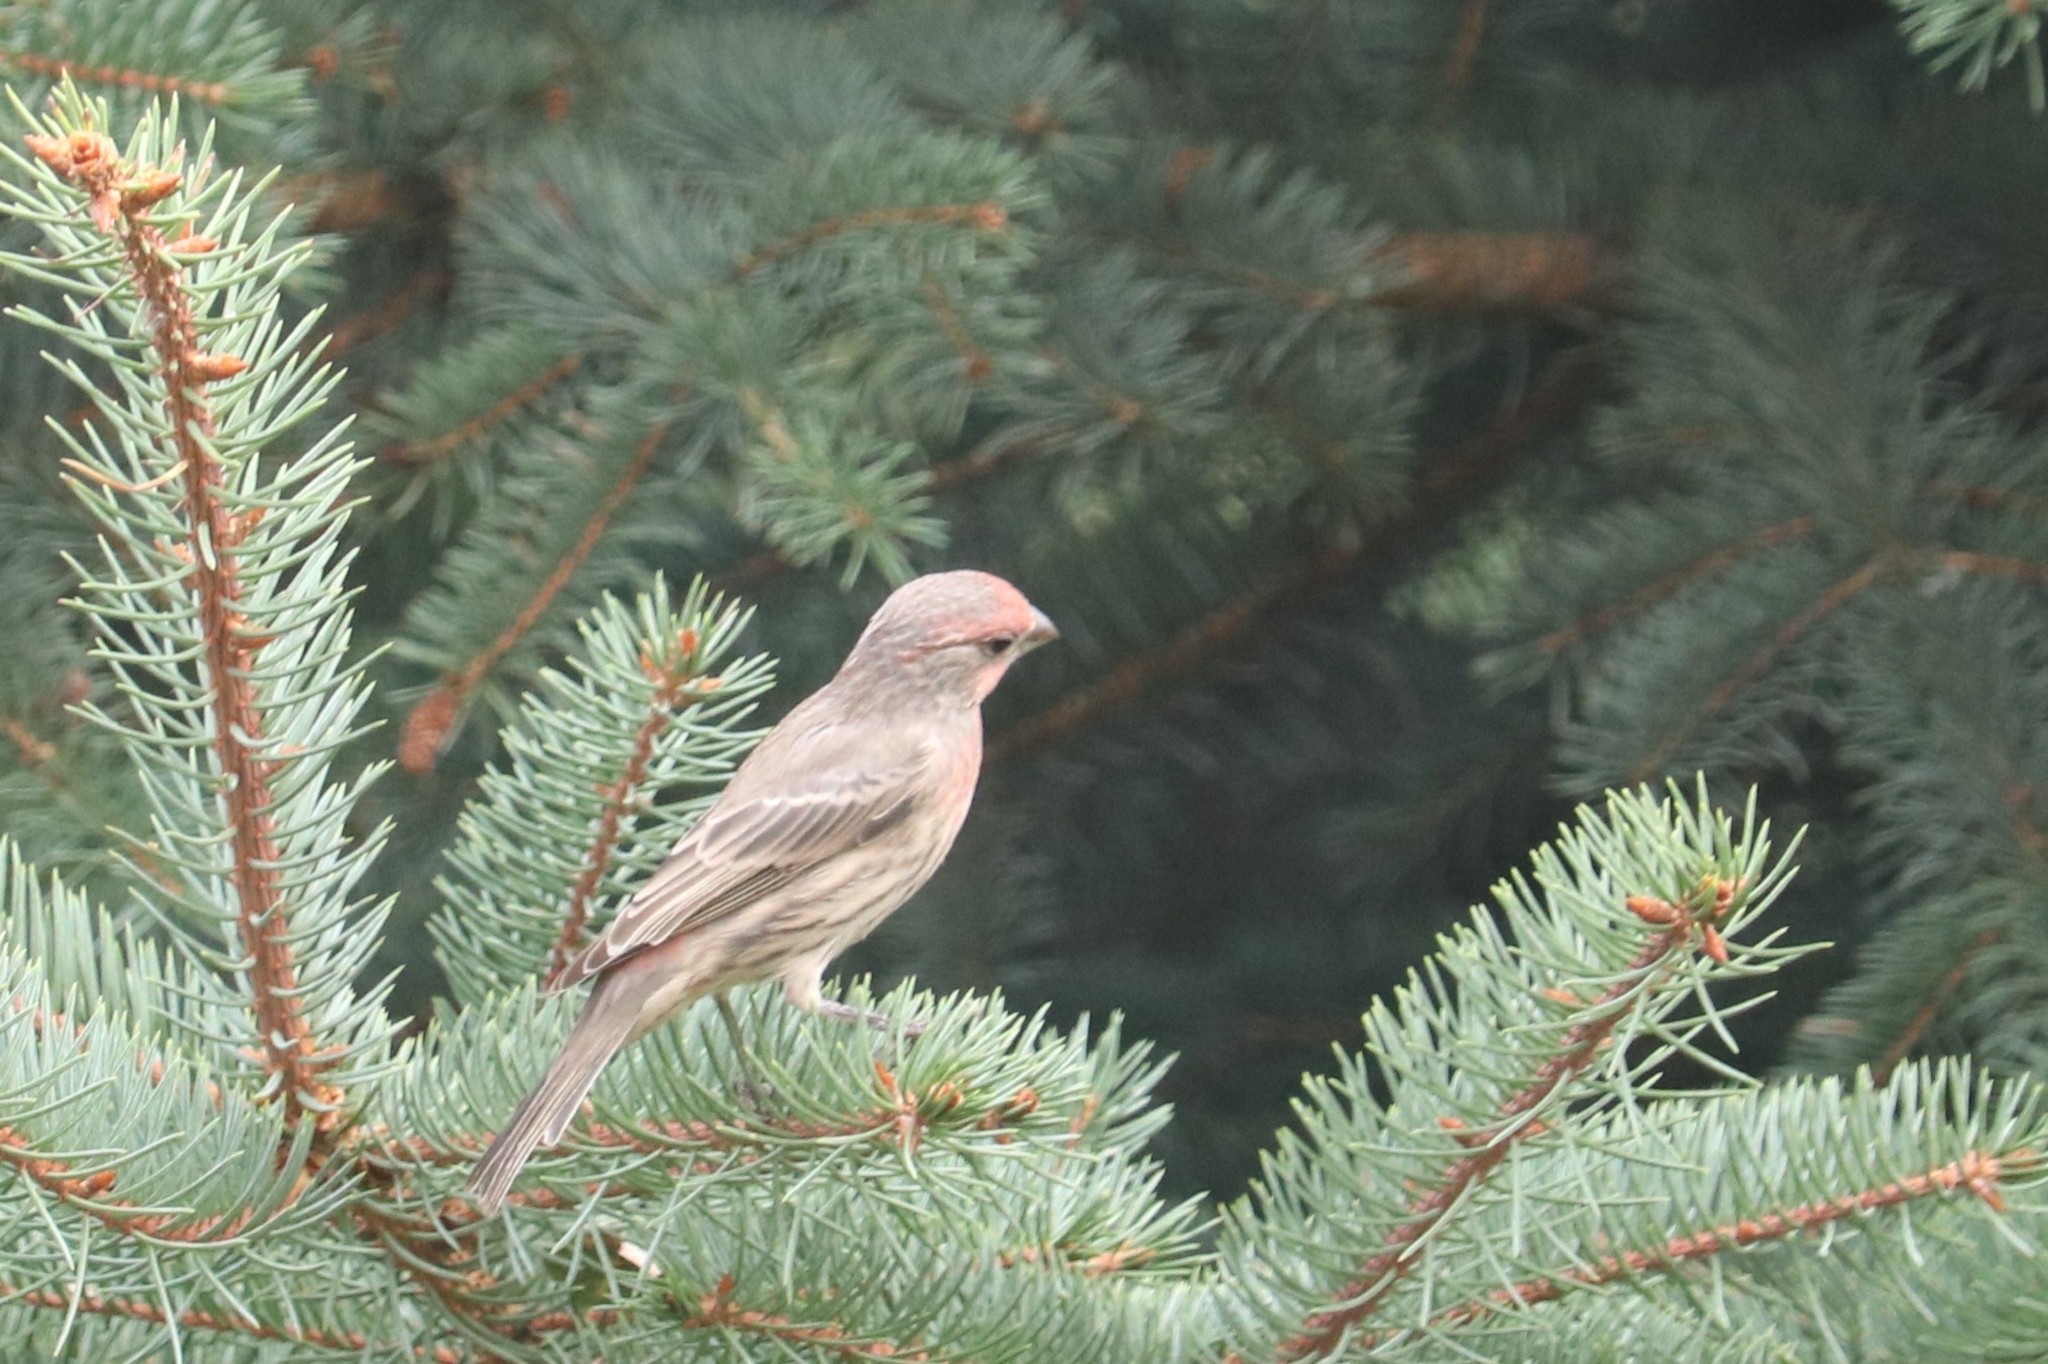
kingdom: Animalia
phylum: Chordata
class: Aves
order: Passeriformes
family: Fringillidae
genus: Haemorhous
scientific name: Haemorhous mexicanus
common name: House finch
